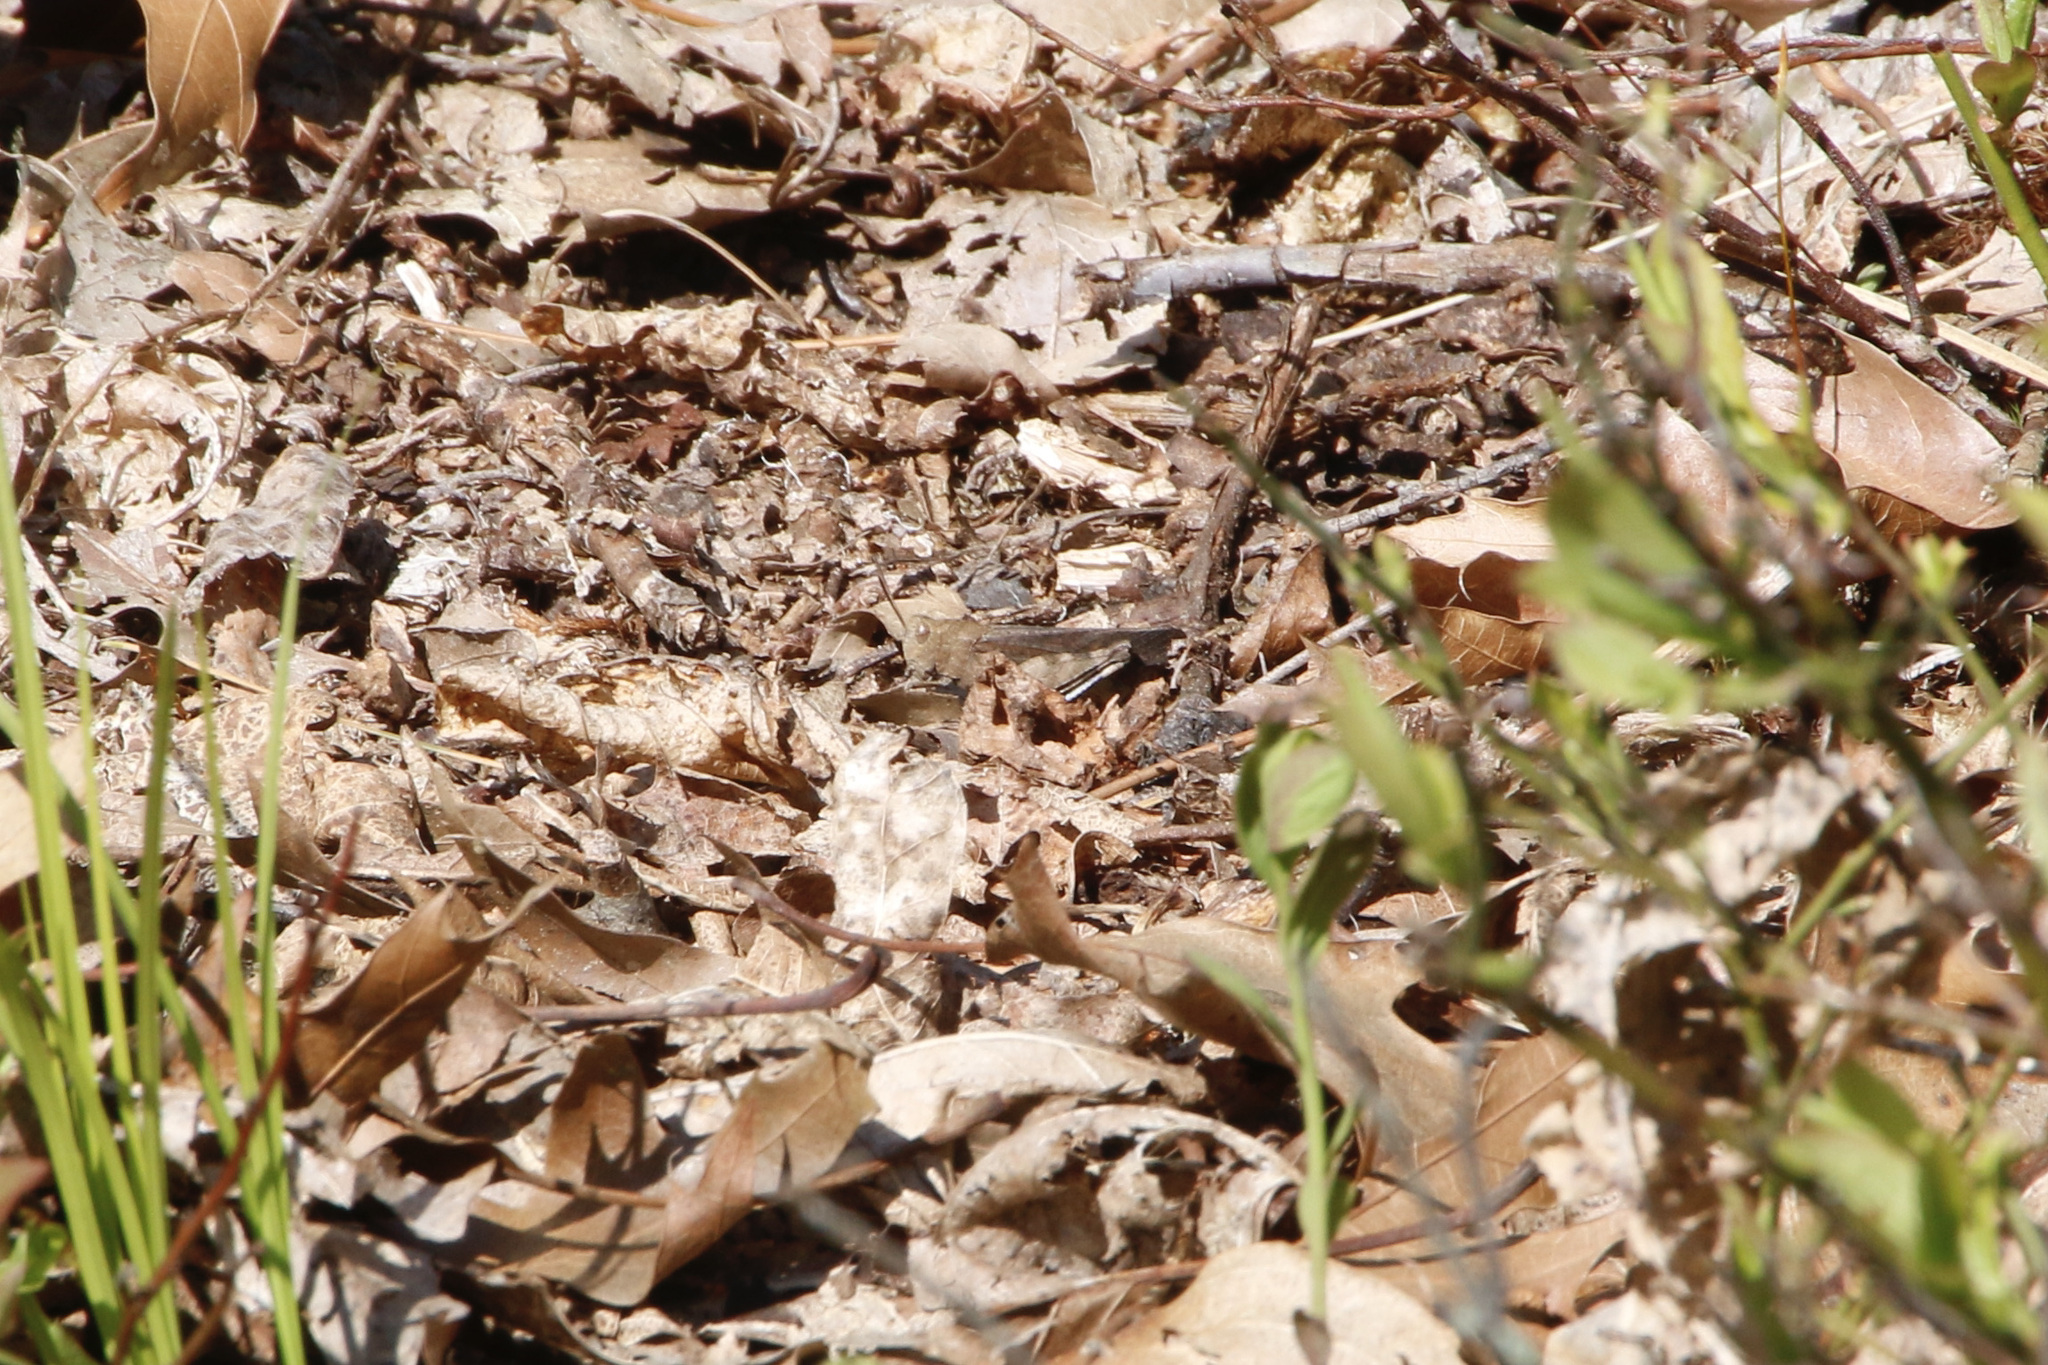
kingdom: Animalia
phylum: Arthropoda
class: Insecta
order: Orthoptera
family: Acrididae
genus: Arphia
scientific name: Arphia sulphurea
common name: Spring yellow-winged locust
